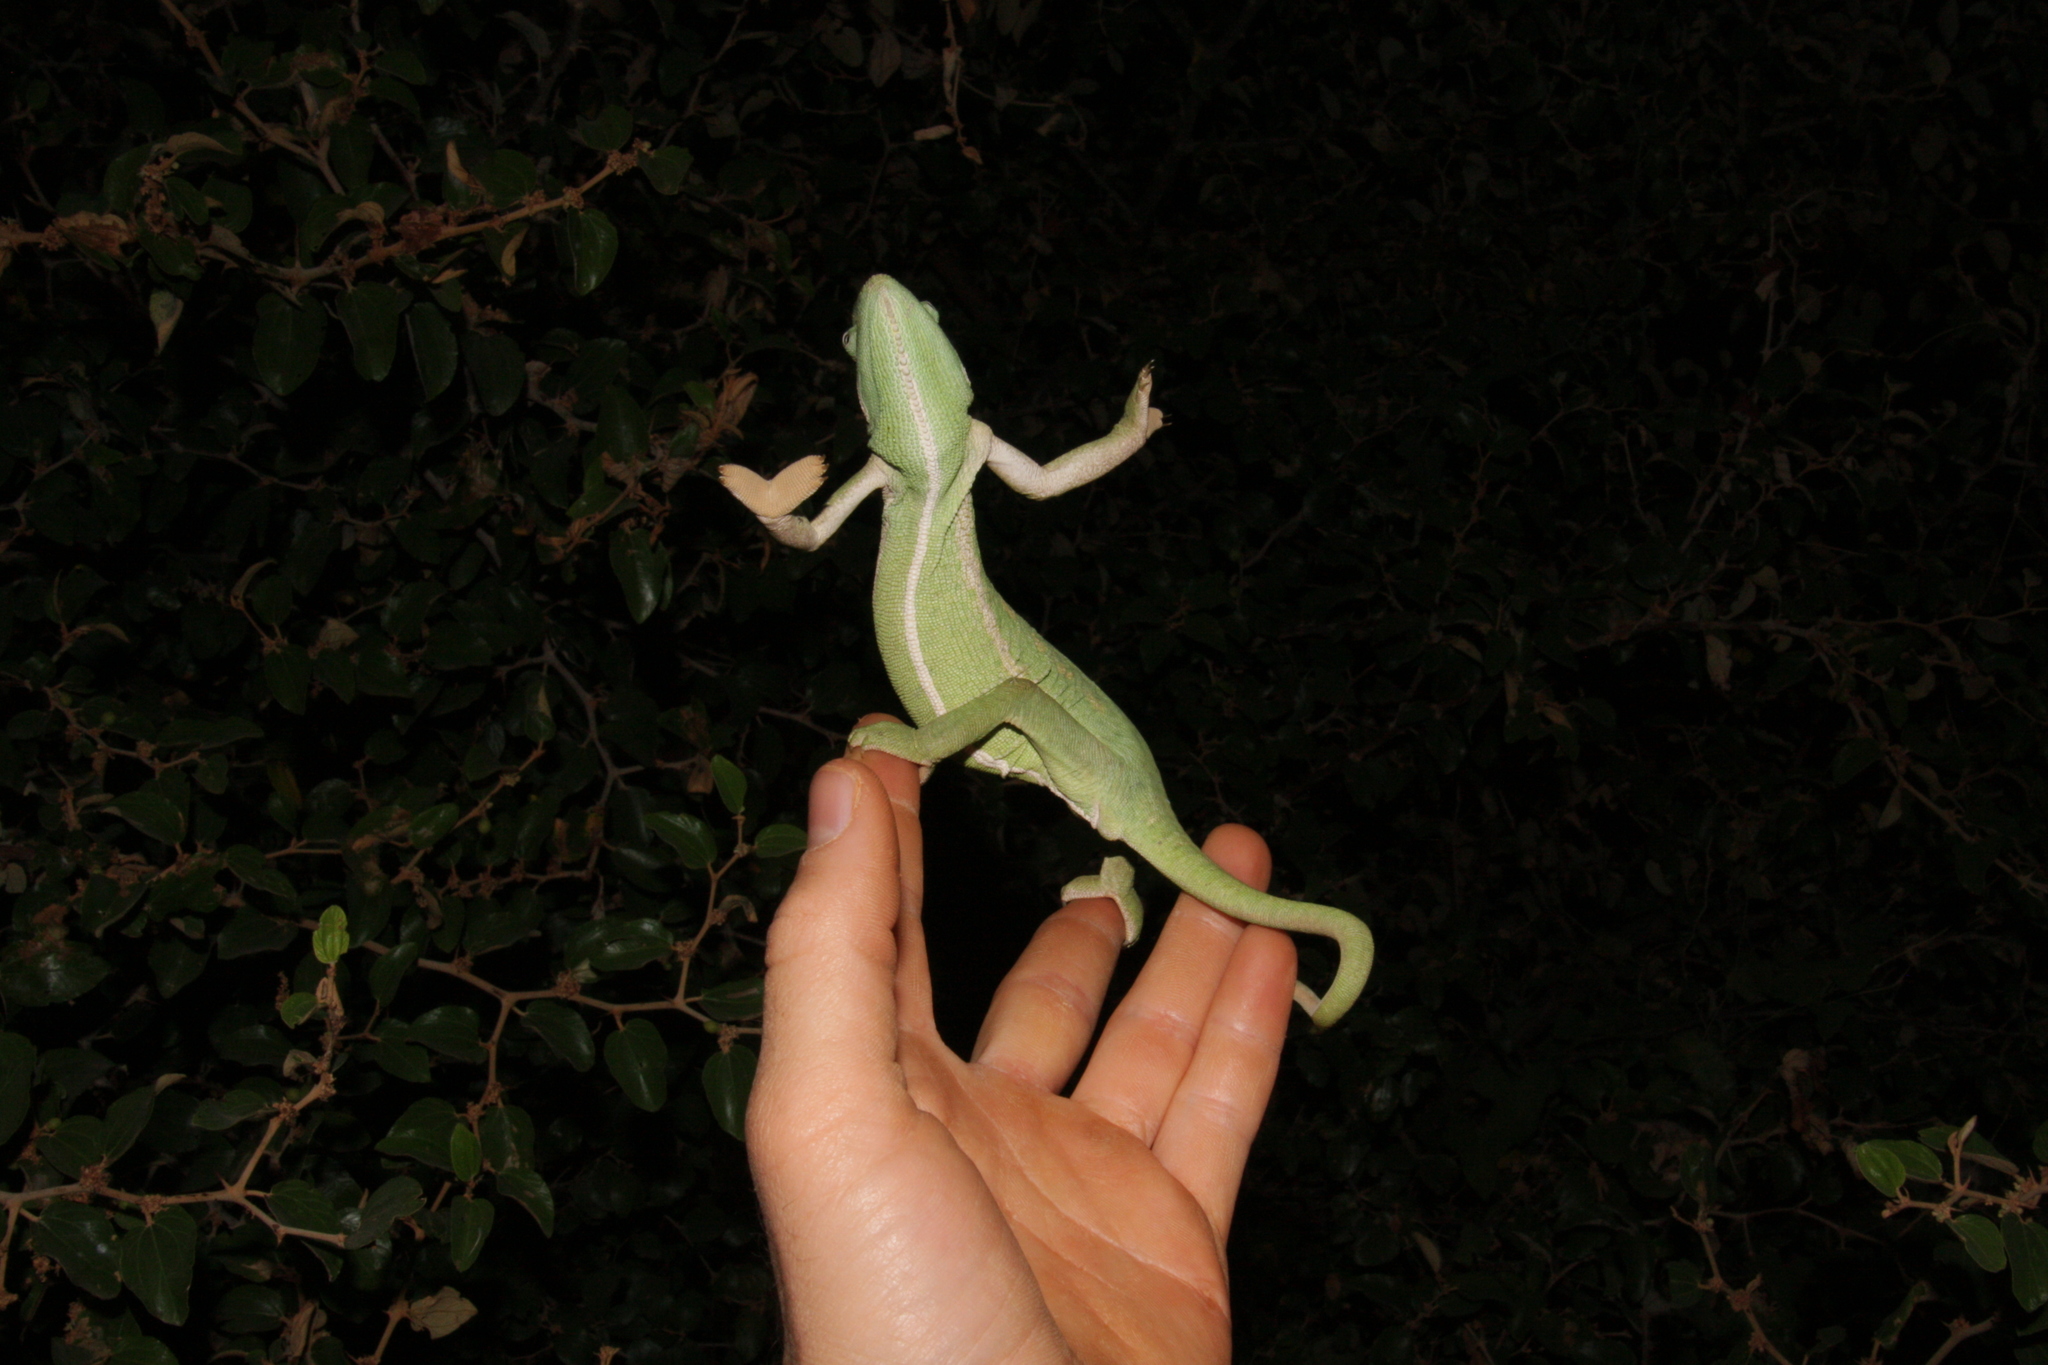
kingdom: Animalia
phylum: Chordata
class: Squamata
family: Chamaeleonidae
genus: Chamaeleo
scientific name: Chamaeleo africanus
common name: African chameleon
